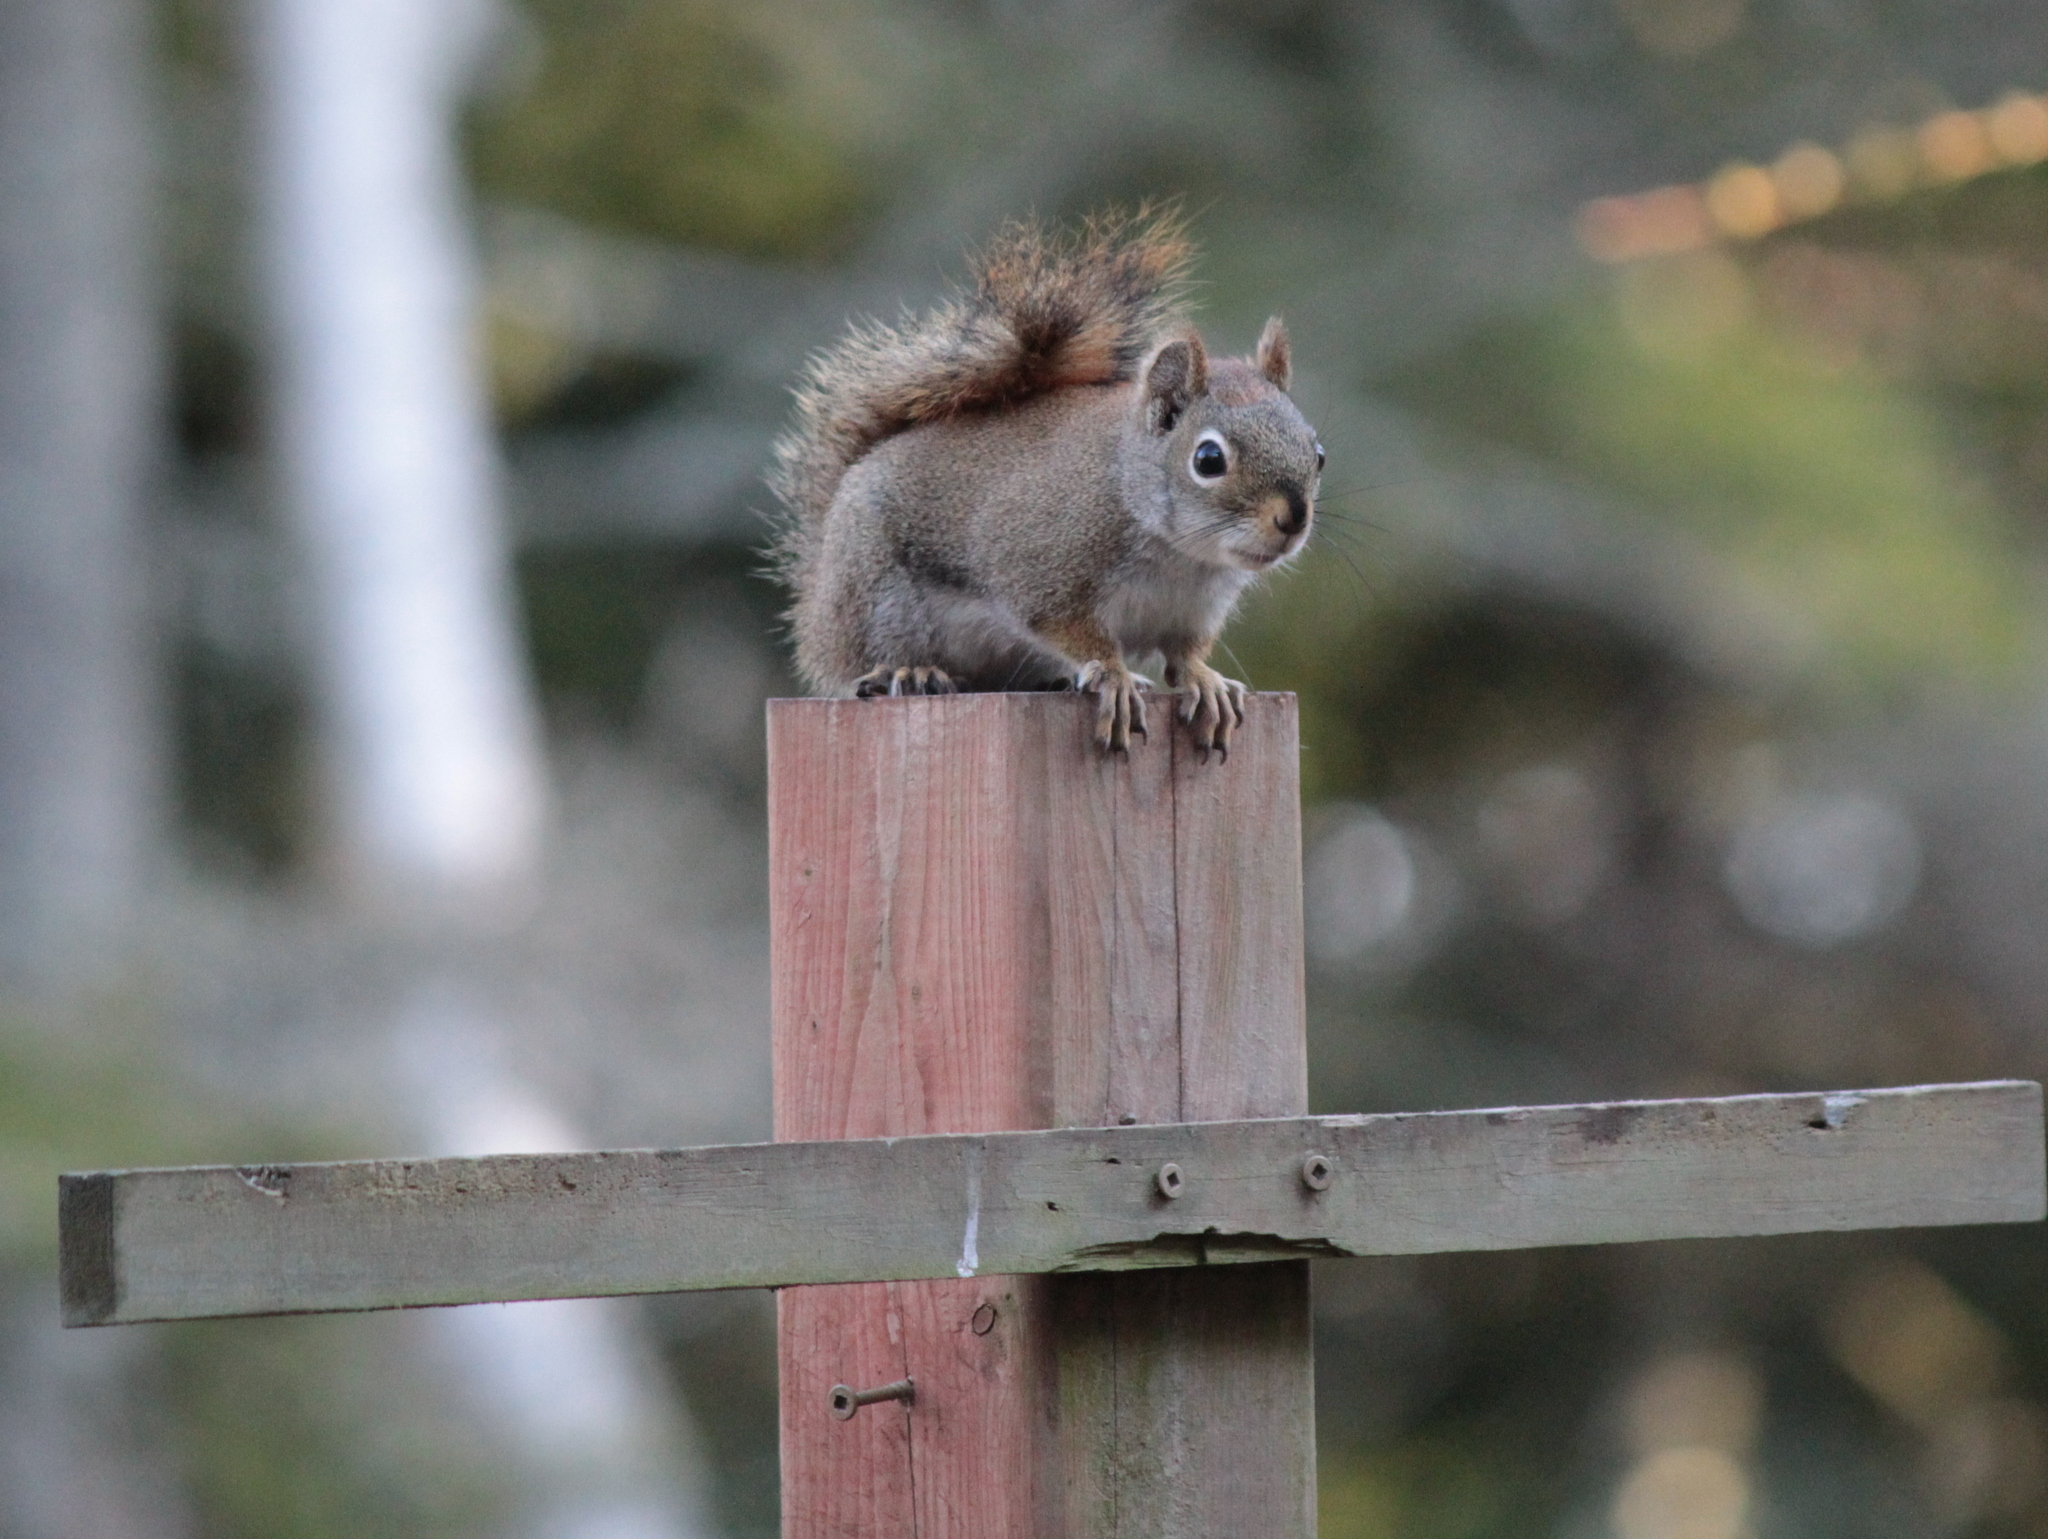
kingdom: Animalia
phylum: Chordata
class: Mammalia
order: Rodentia
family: Sciuridae
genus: Tamiasciurus
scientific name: Tamiasciurus hudsonicus
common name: Red squirrel
